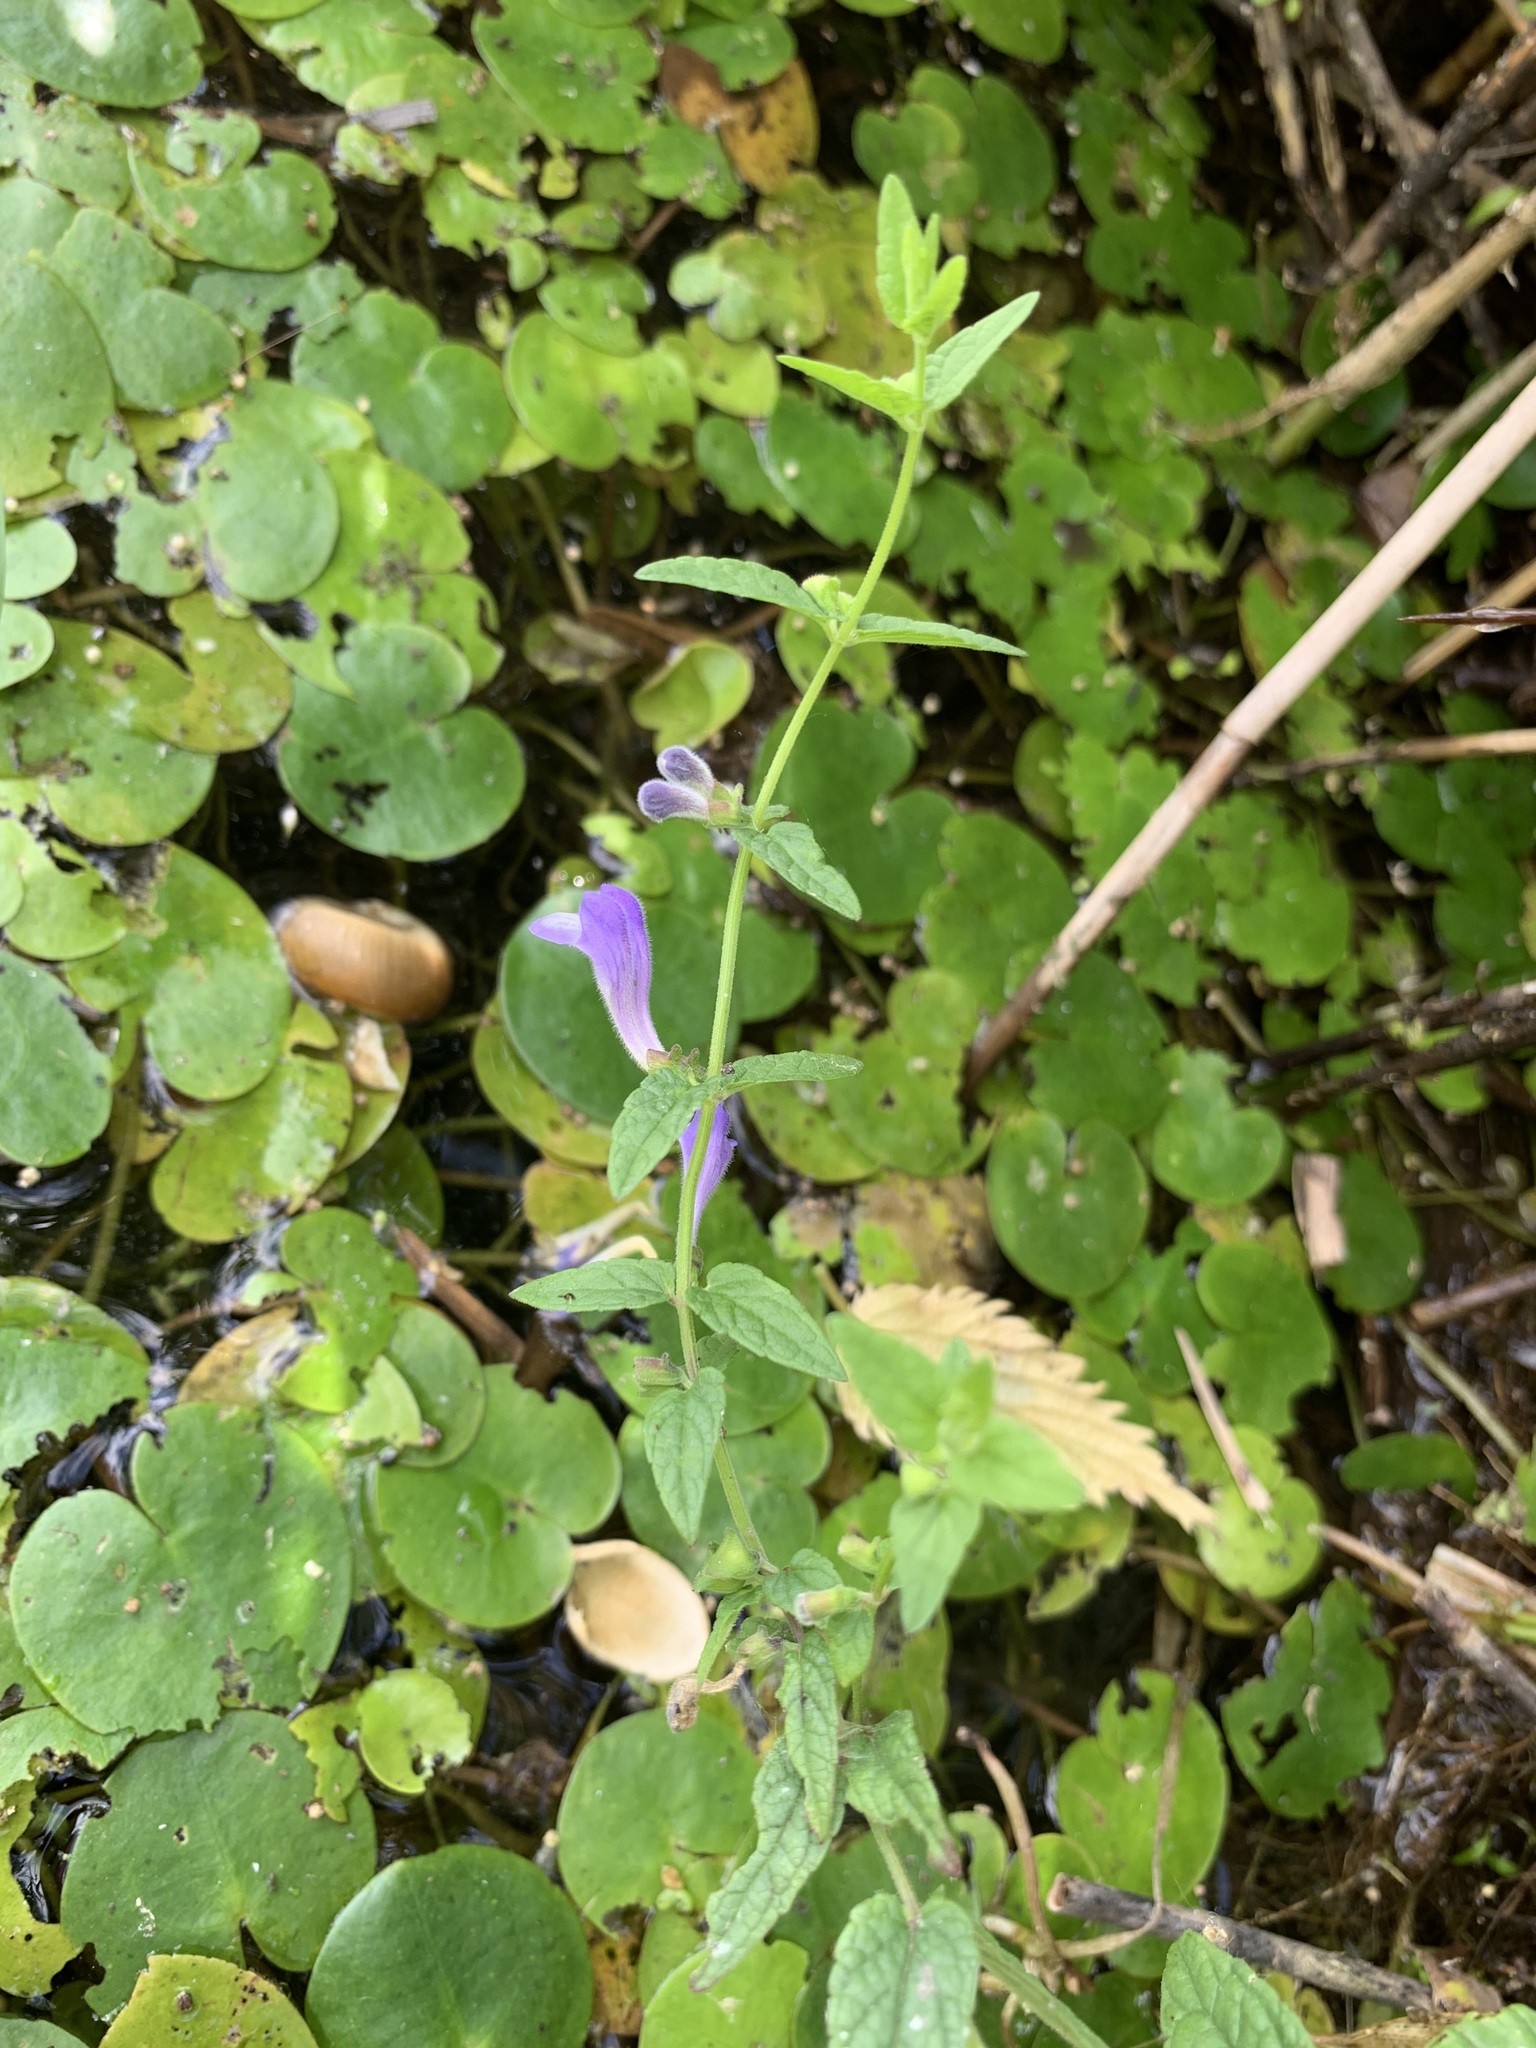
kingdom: Plantae
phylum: Tracheophyta
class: Magnoliopsida
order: Lamiales
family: Lamiaceae
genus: Scutellaria
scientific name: Scutellaria galericulata
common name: Skullcap
